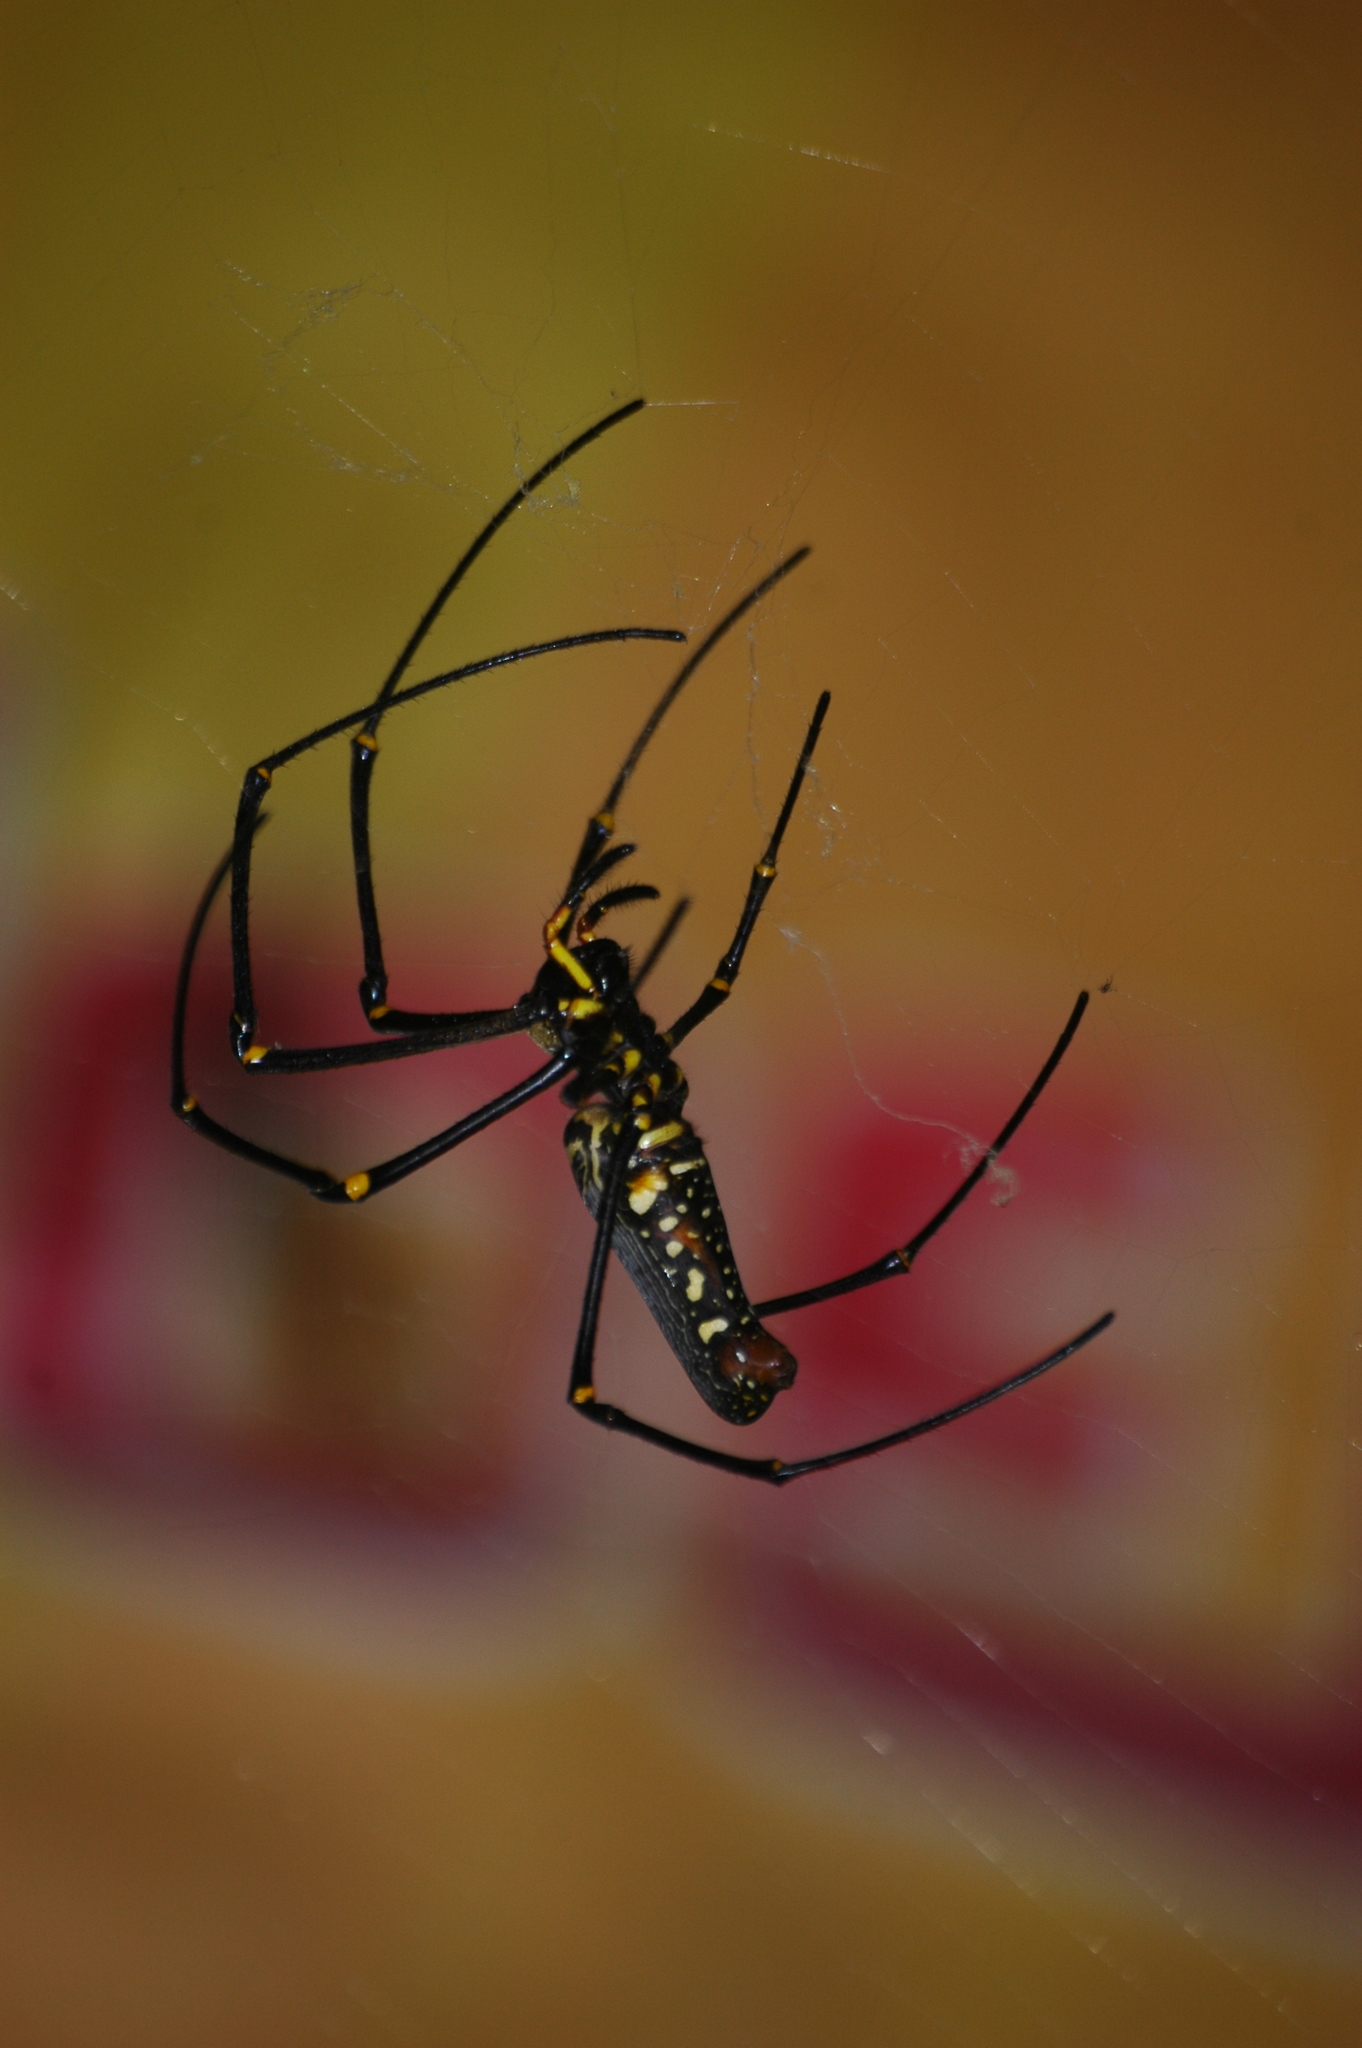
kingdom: Animalia
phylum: Arthropoda
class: Arachnida
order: Araneae
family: Araneidae
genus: Nephila
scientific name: Nephila pilipes
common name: Giant golden orb weaver
